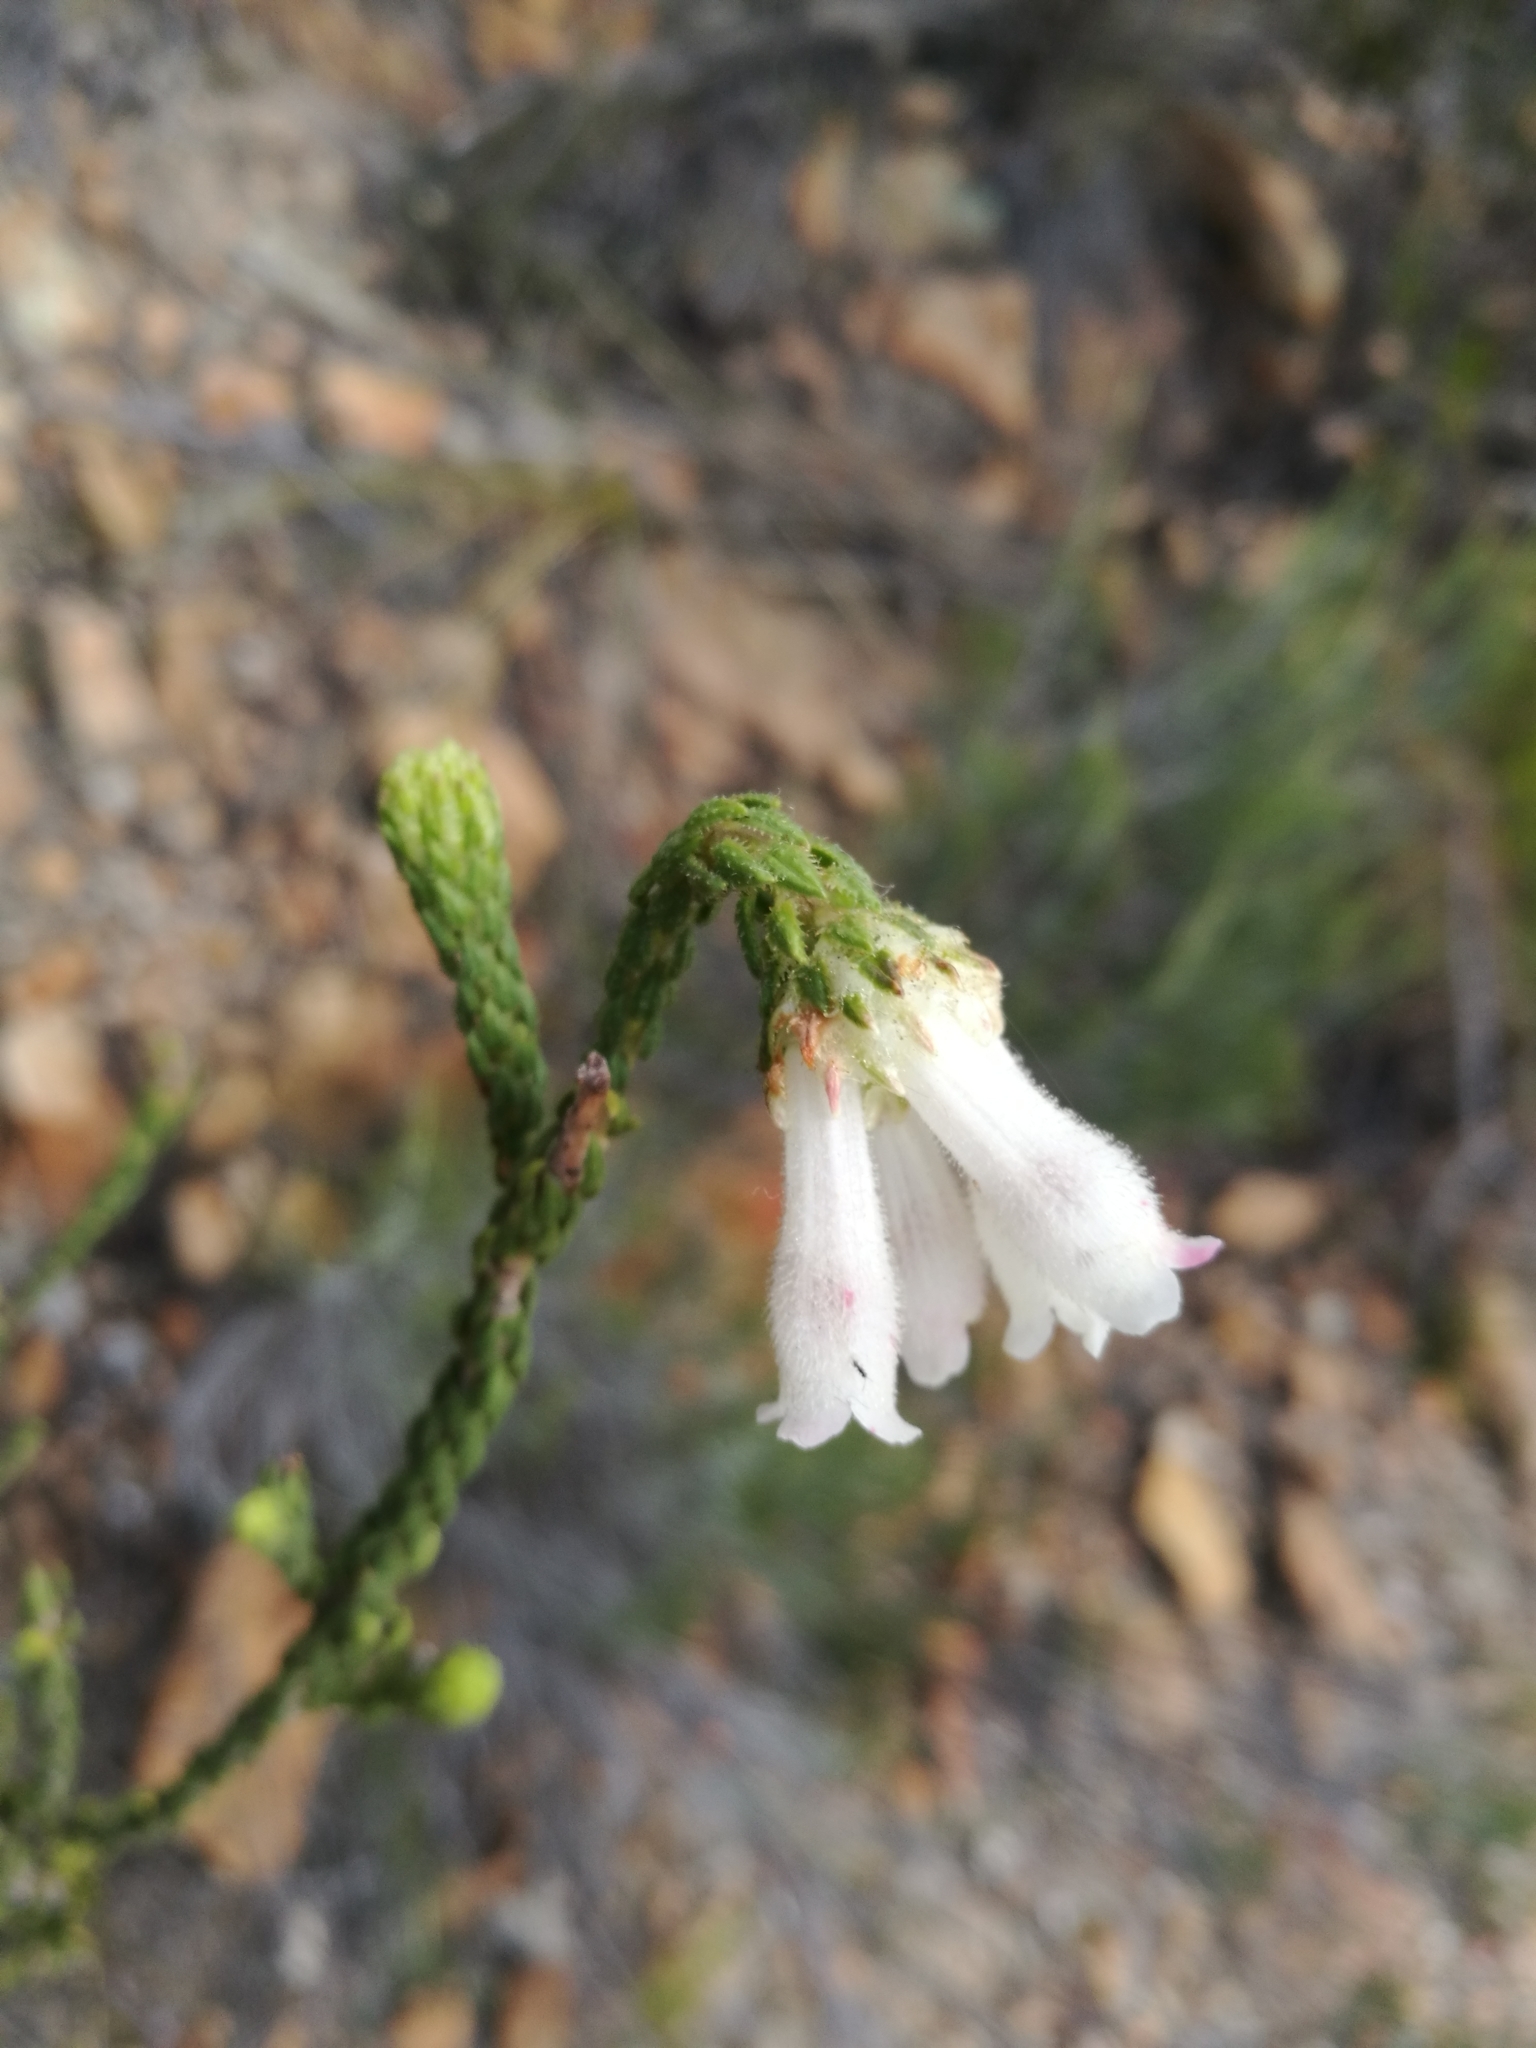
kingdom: Plantae
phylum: Tracheophyta
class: Magnoliopsida
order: Ericales
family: Ericaceae
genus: Erica
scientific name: Erica pectinifolia
